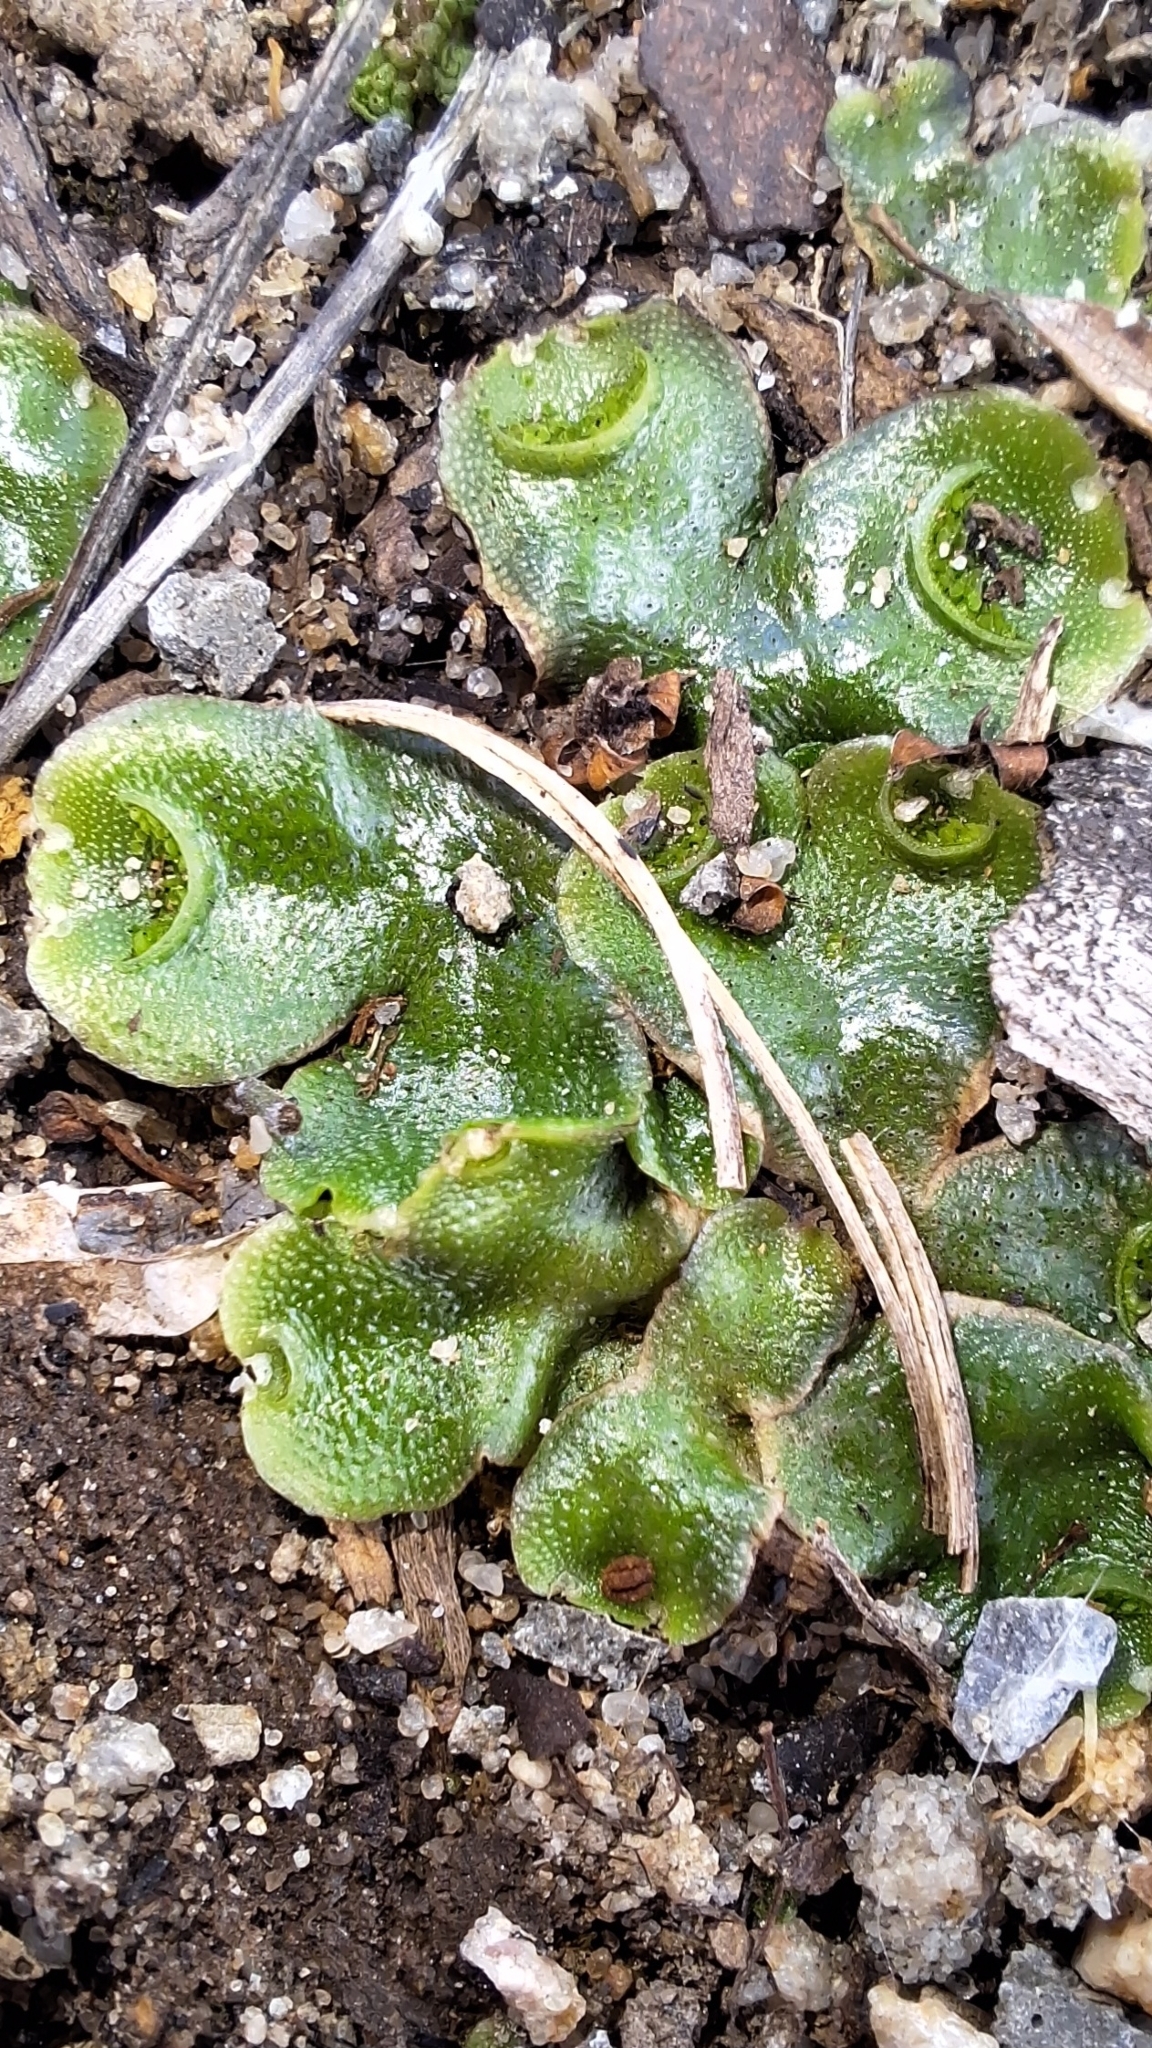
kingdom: Plantae
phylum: Marchantiophyta
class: Marchantiopsida
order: Lunulariales
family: Lunulariaceae
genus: Lunularia
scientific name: Lunularia cruciata
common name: Crescent-cup liverwort
